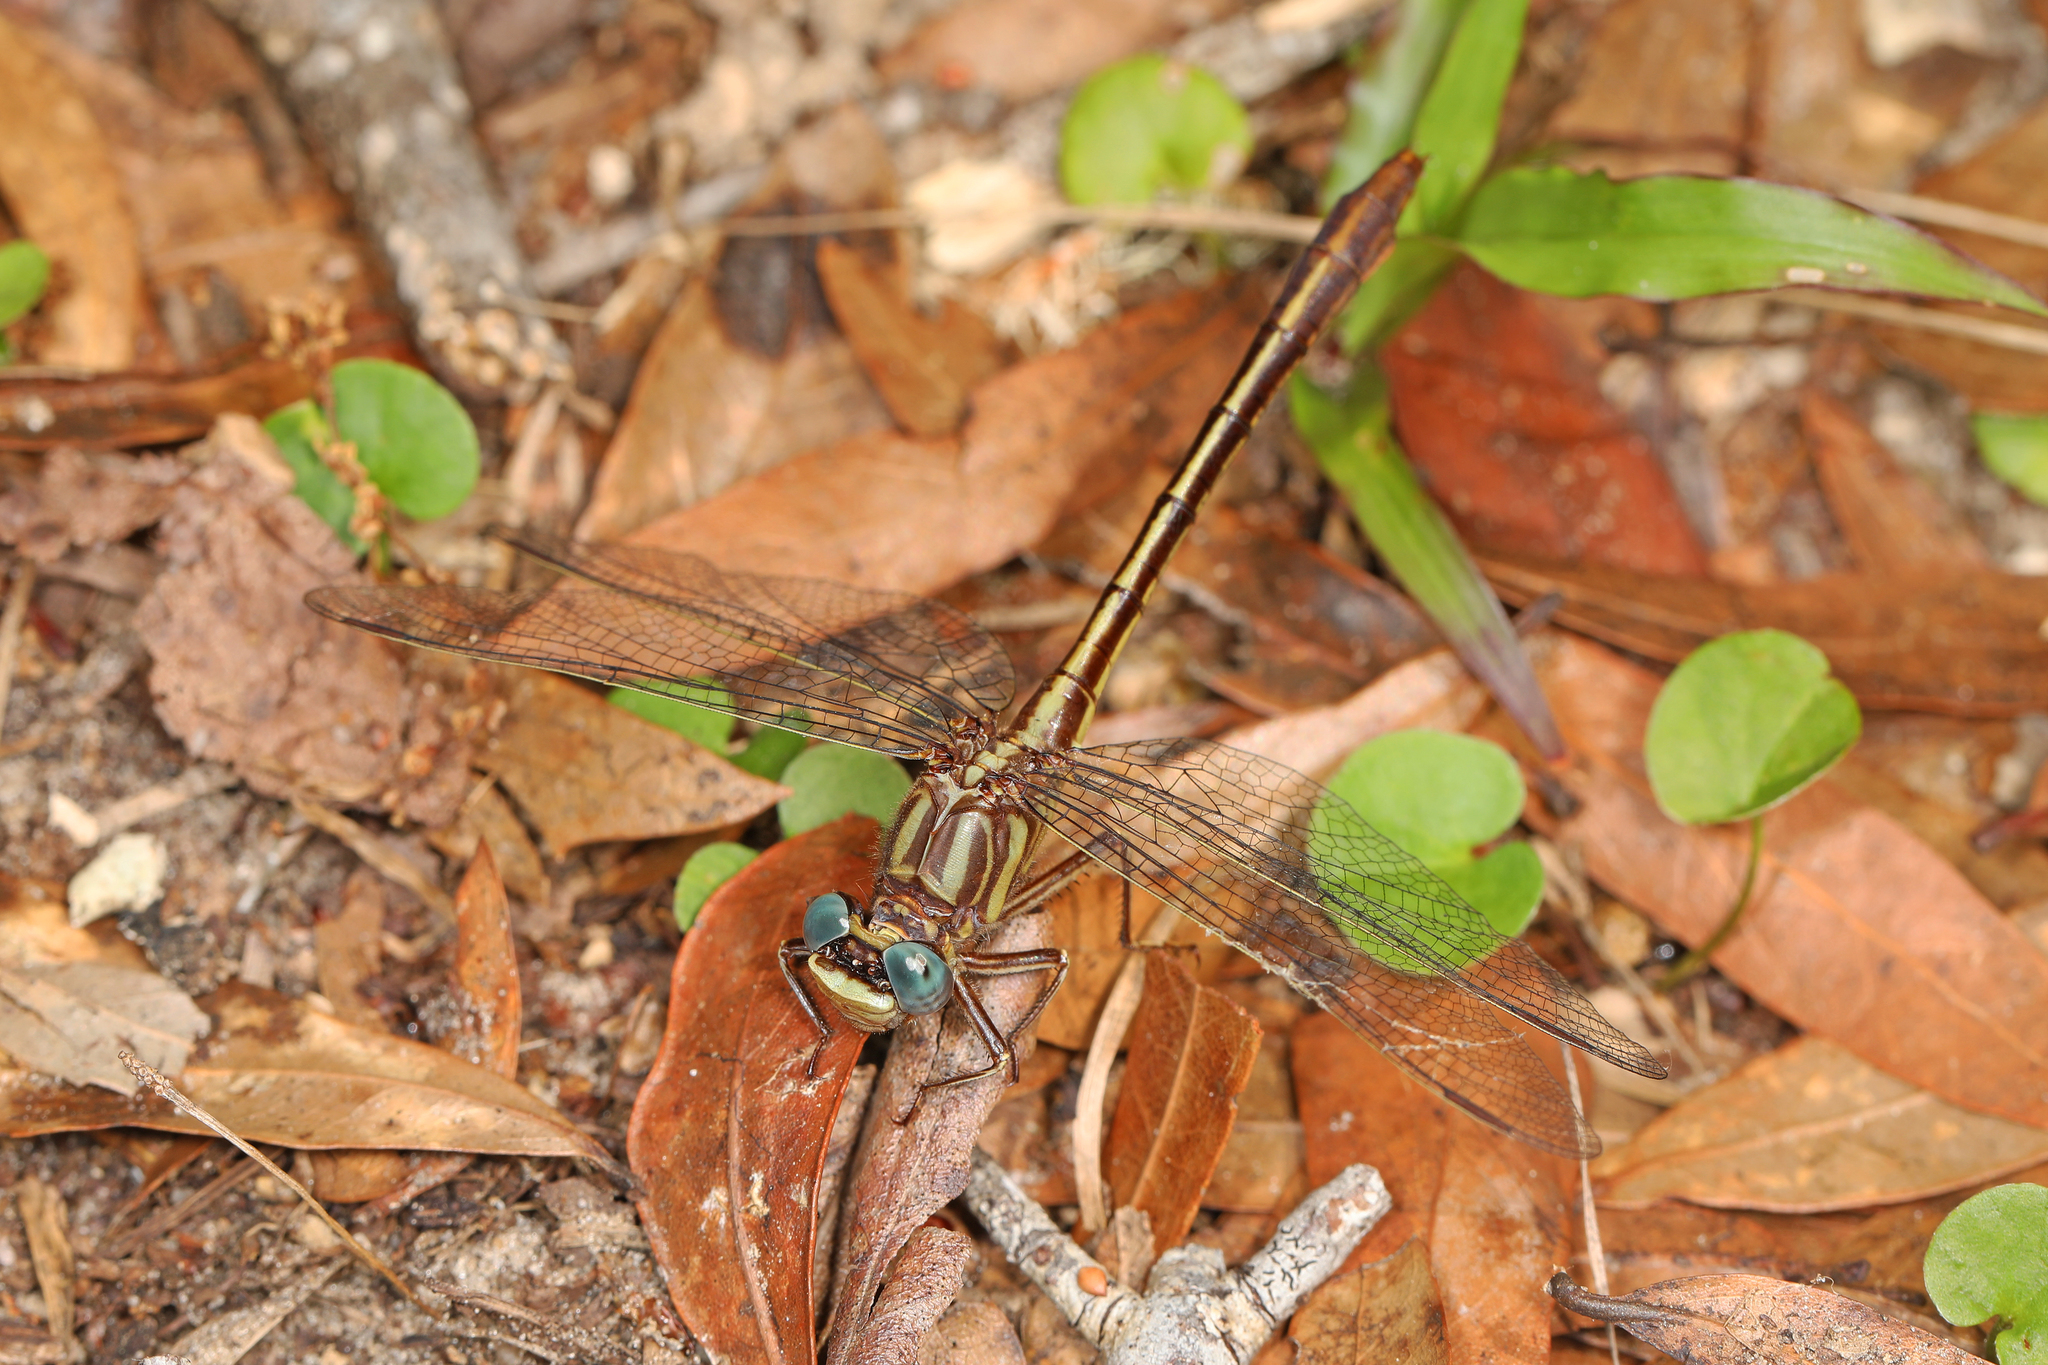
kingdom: Animalia
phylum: Arthropoda
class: Insecta
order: Odonata
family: Gomphidae
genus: Phanogomphus
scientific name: Phanogomphus minutus
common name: Cypress clubtail
